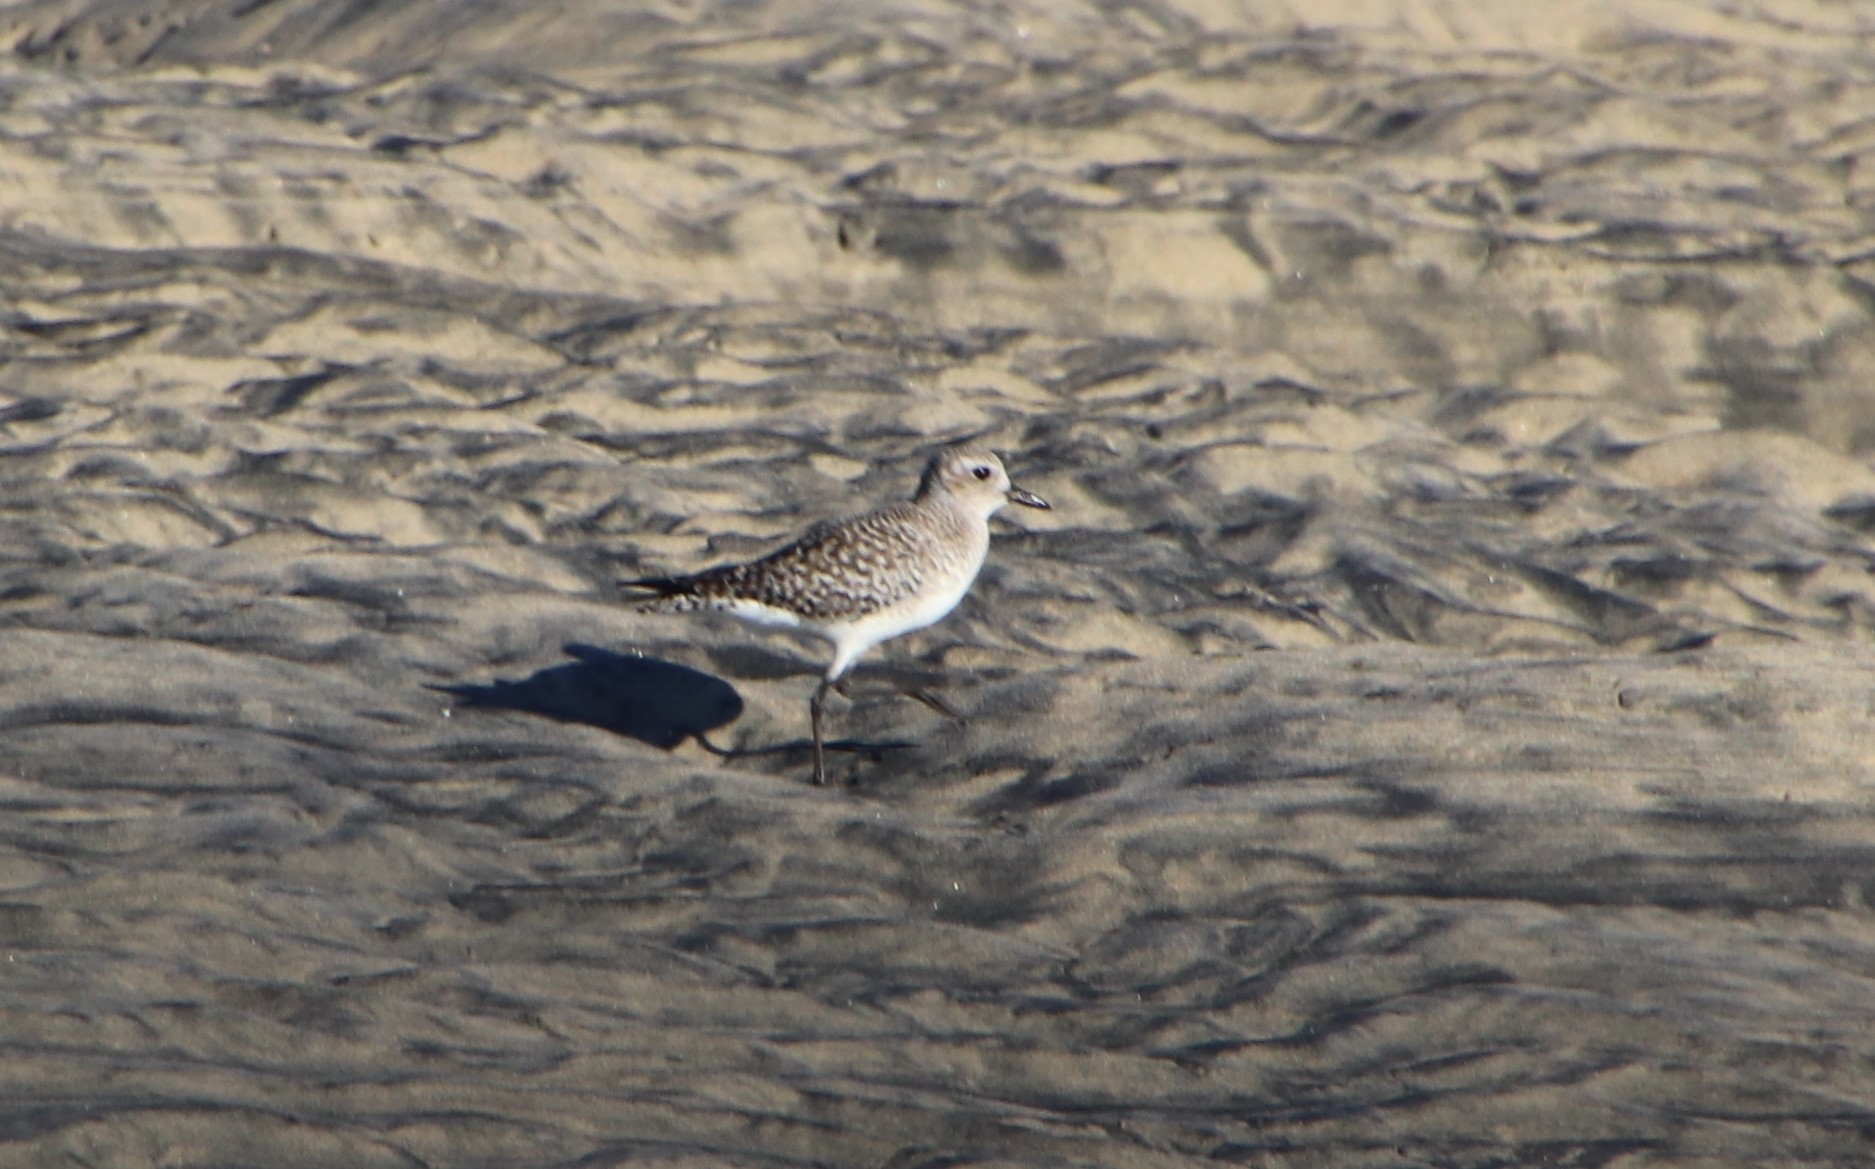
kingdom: Animalia
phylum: Chordata
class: Aves
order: Charadriiformes
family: Charadriidae
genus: Pluvialis
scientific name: Pluvialis squatarola
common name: Grey plover
